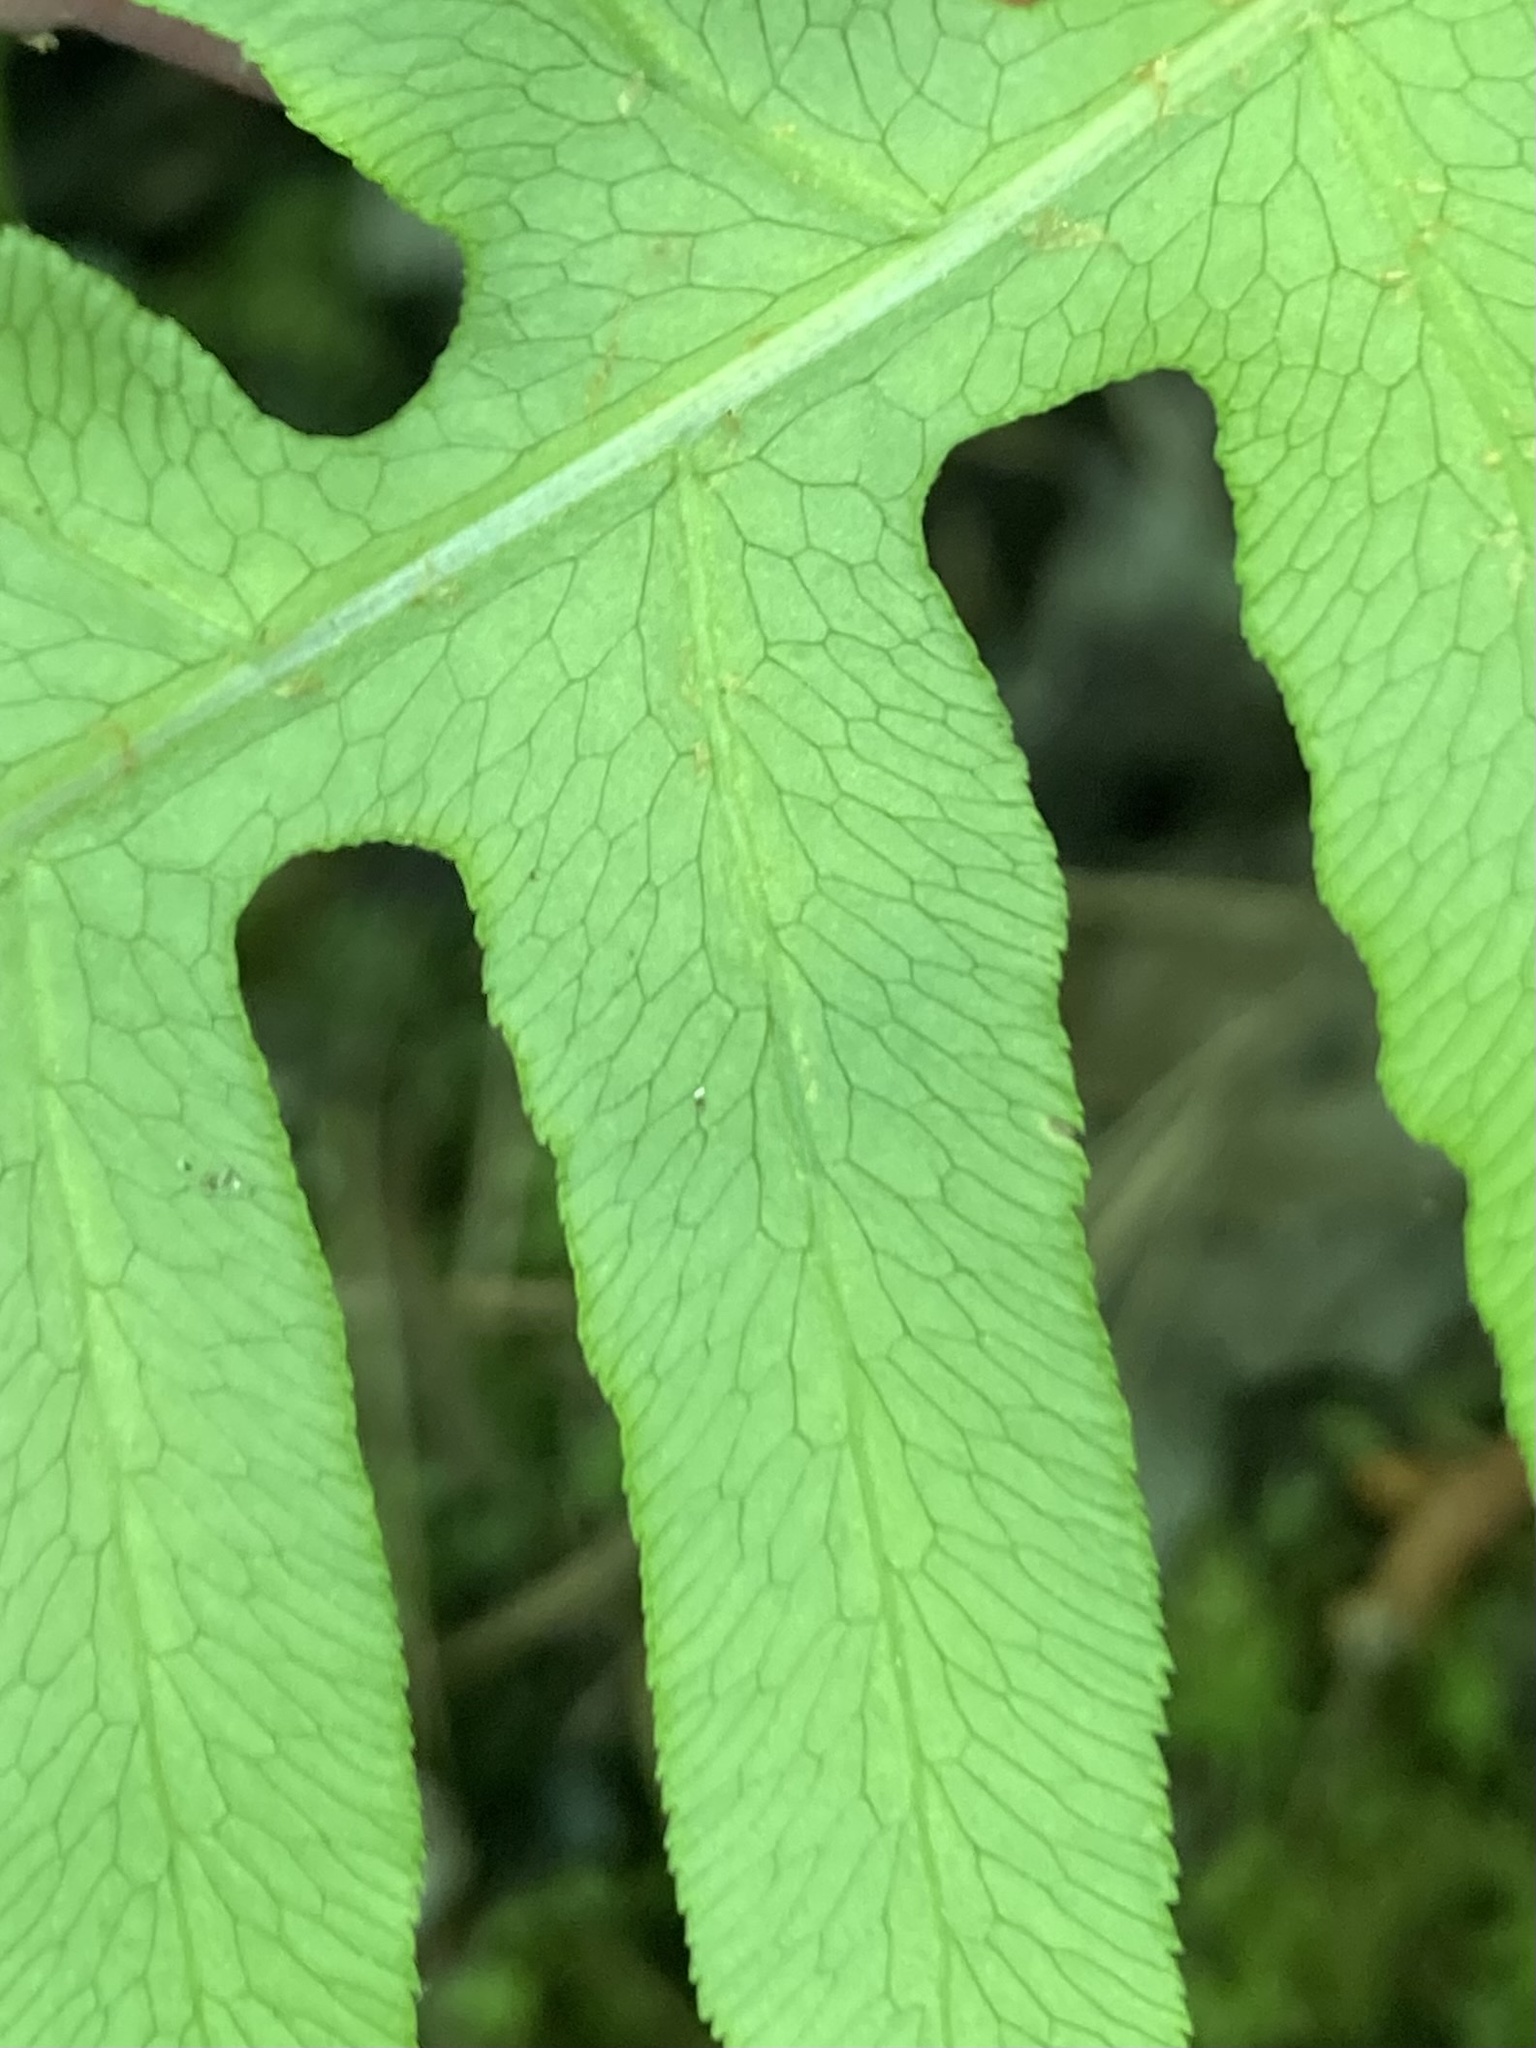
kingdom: Plantae
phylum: Tracheophyta
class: Polypodiopsida
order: Polypodiales
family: Blechnaceae
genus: Lorinseria
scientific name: Lorinseria areolata
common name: Dwarf chain fern
